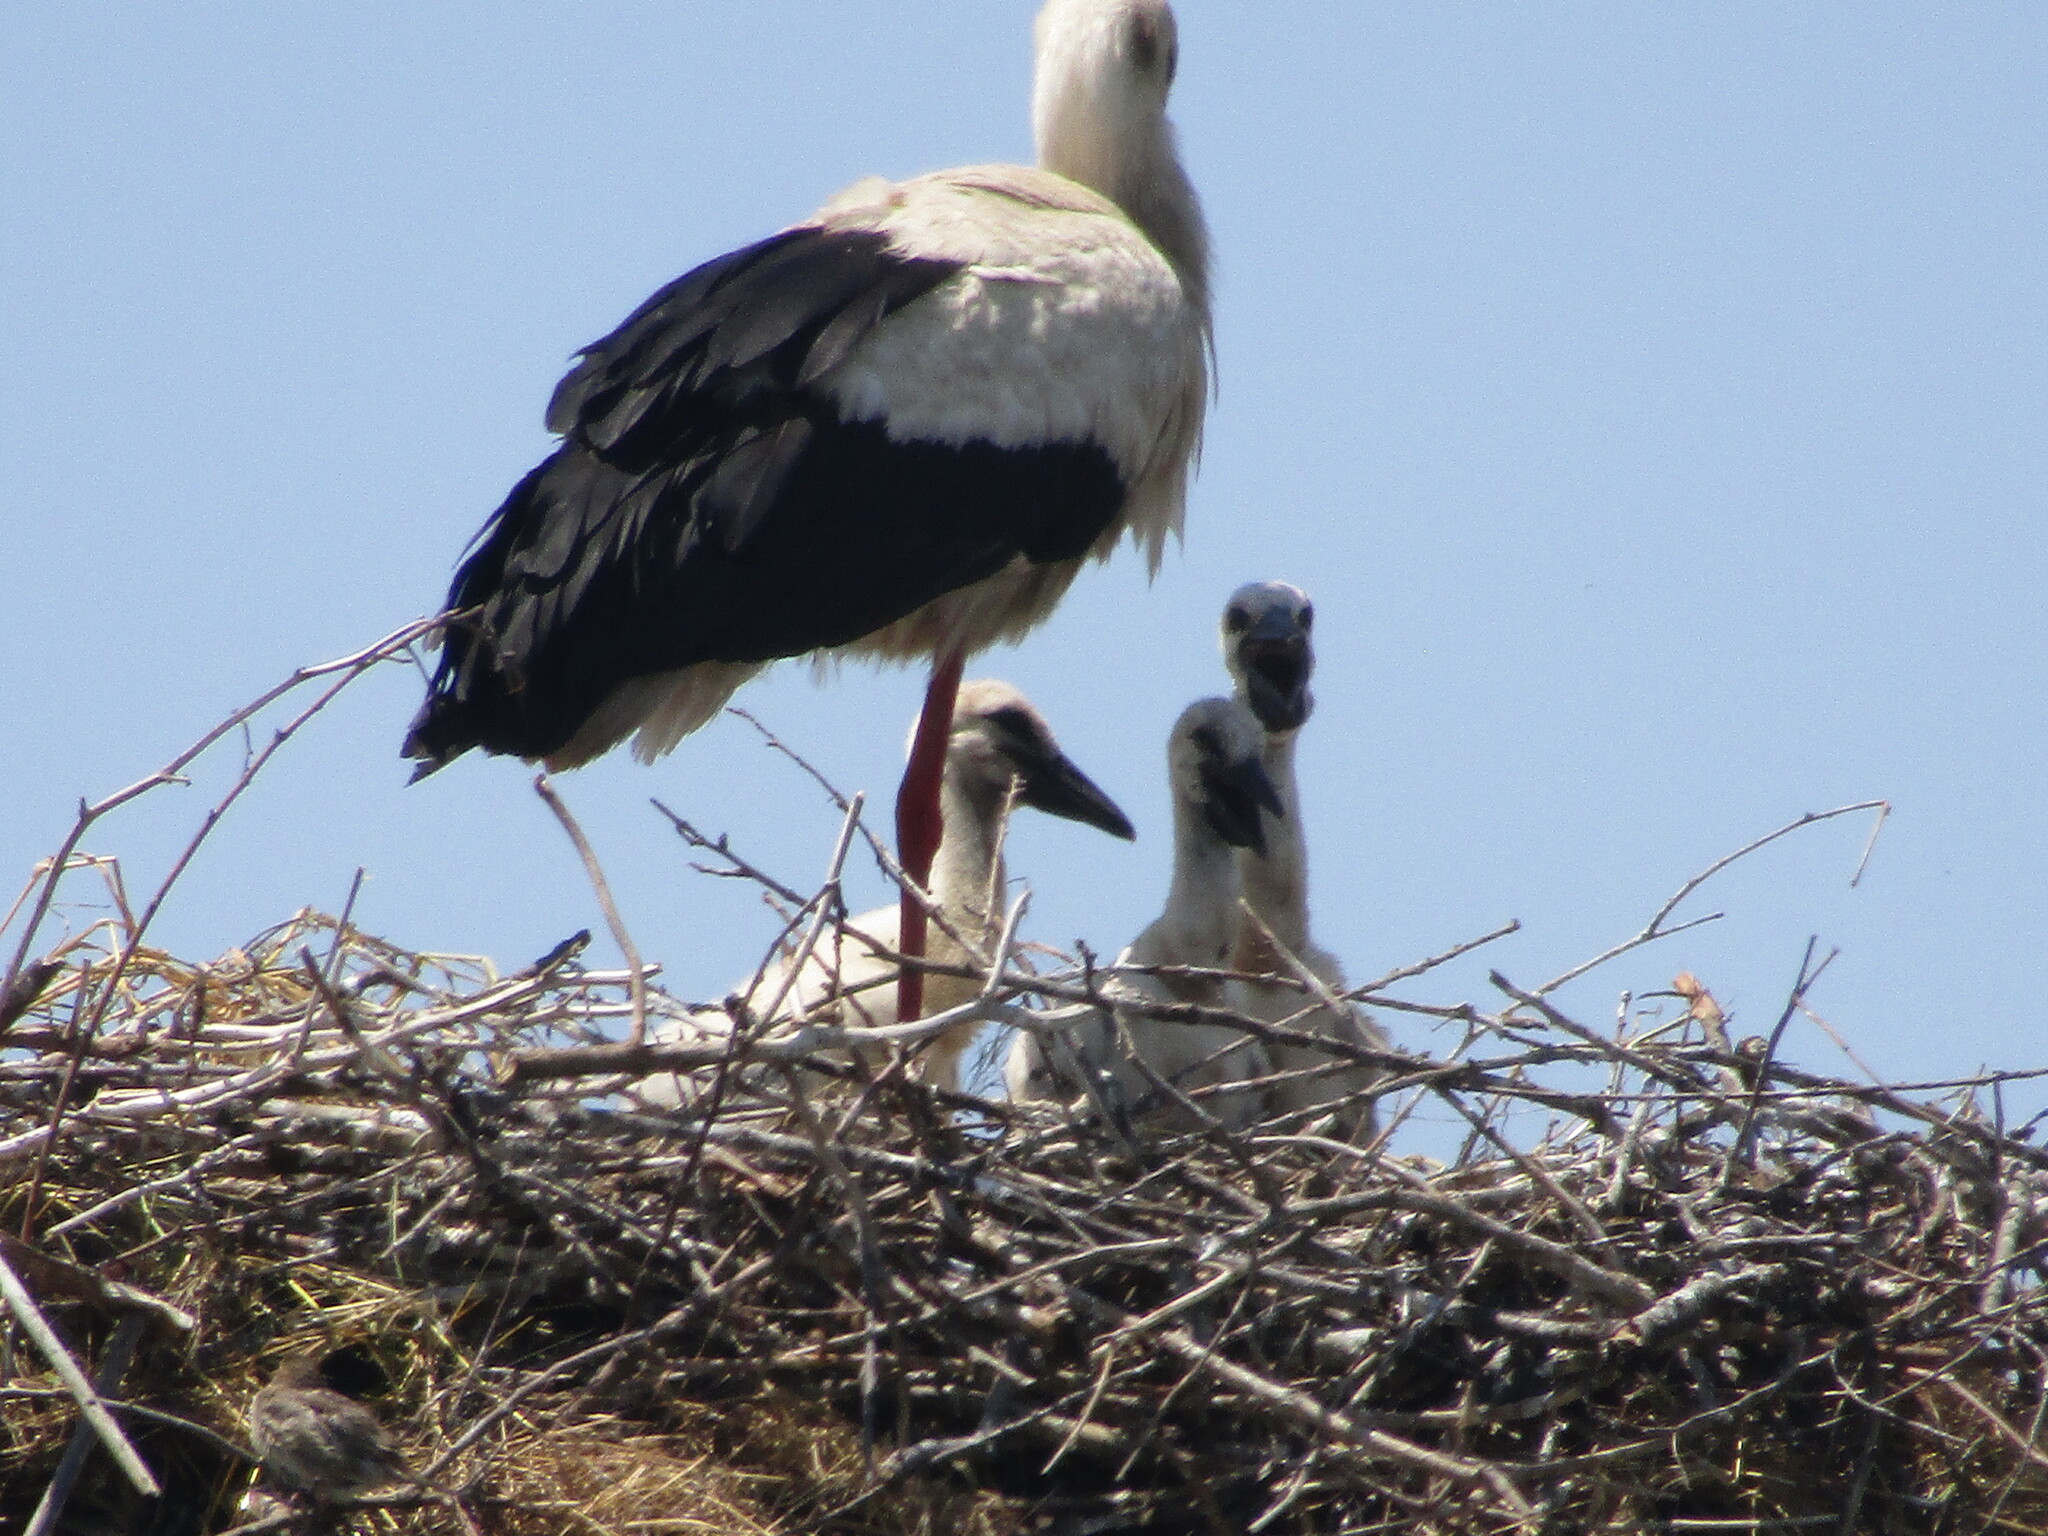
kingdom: Animalia
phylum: Chordata
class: Aves
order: Ciconiiformes
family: Ciconiidae
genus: Ciconia
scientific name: Ciconia ciconia
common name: White stork
